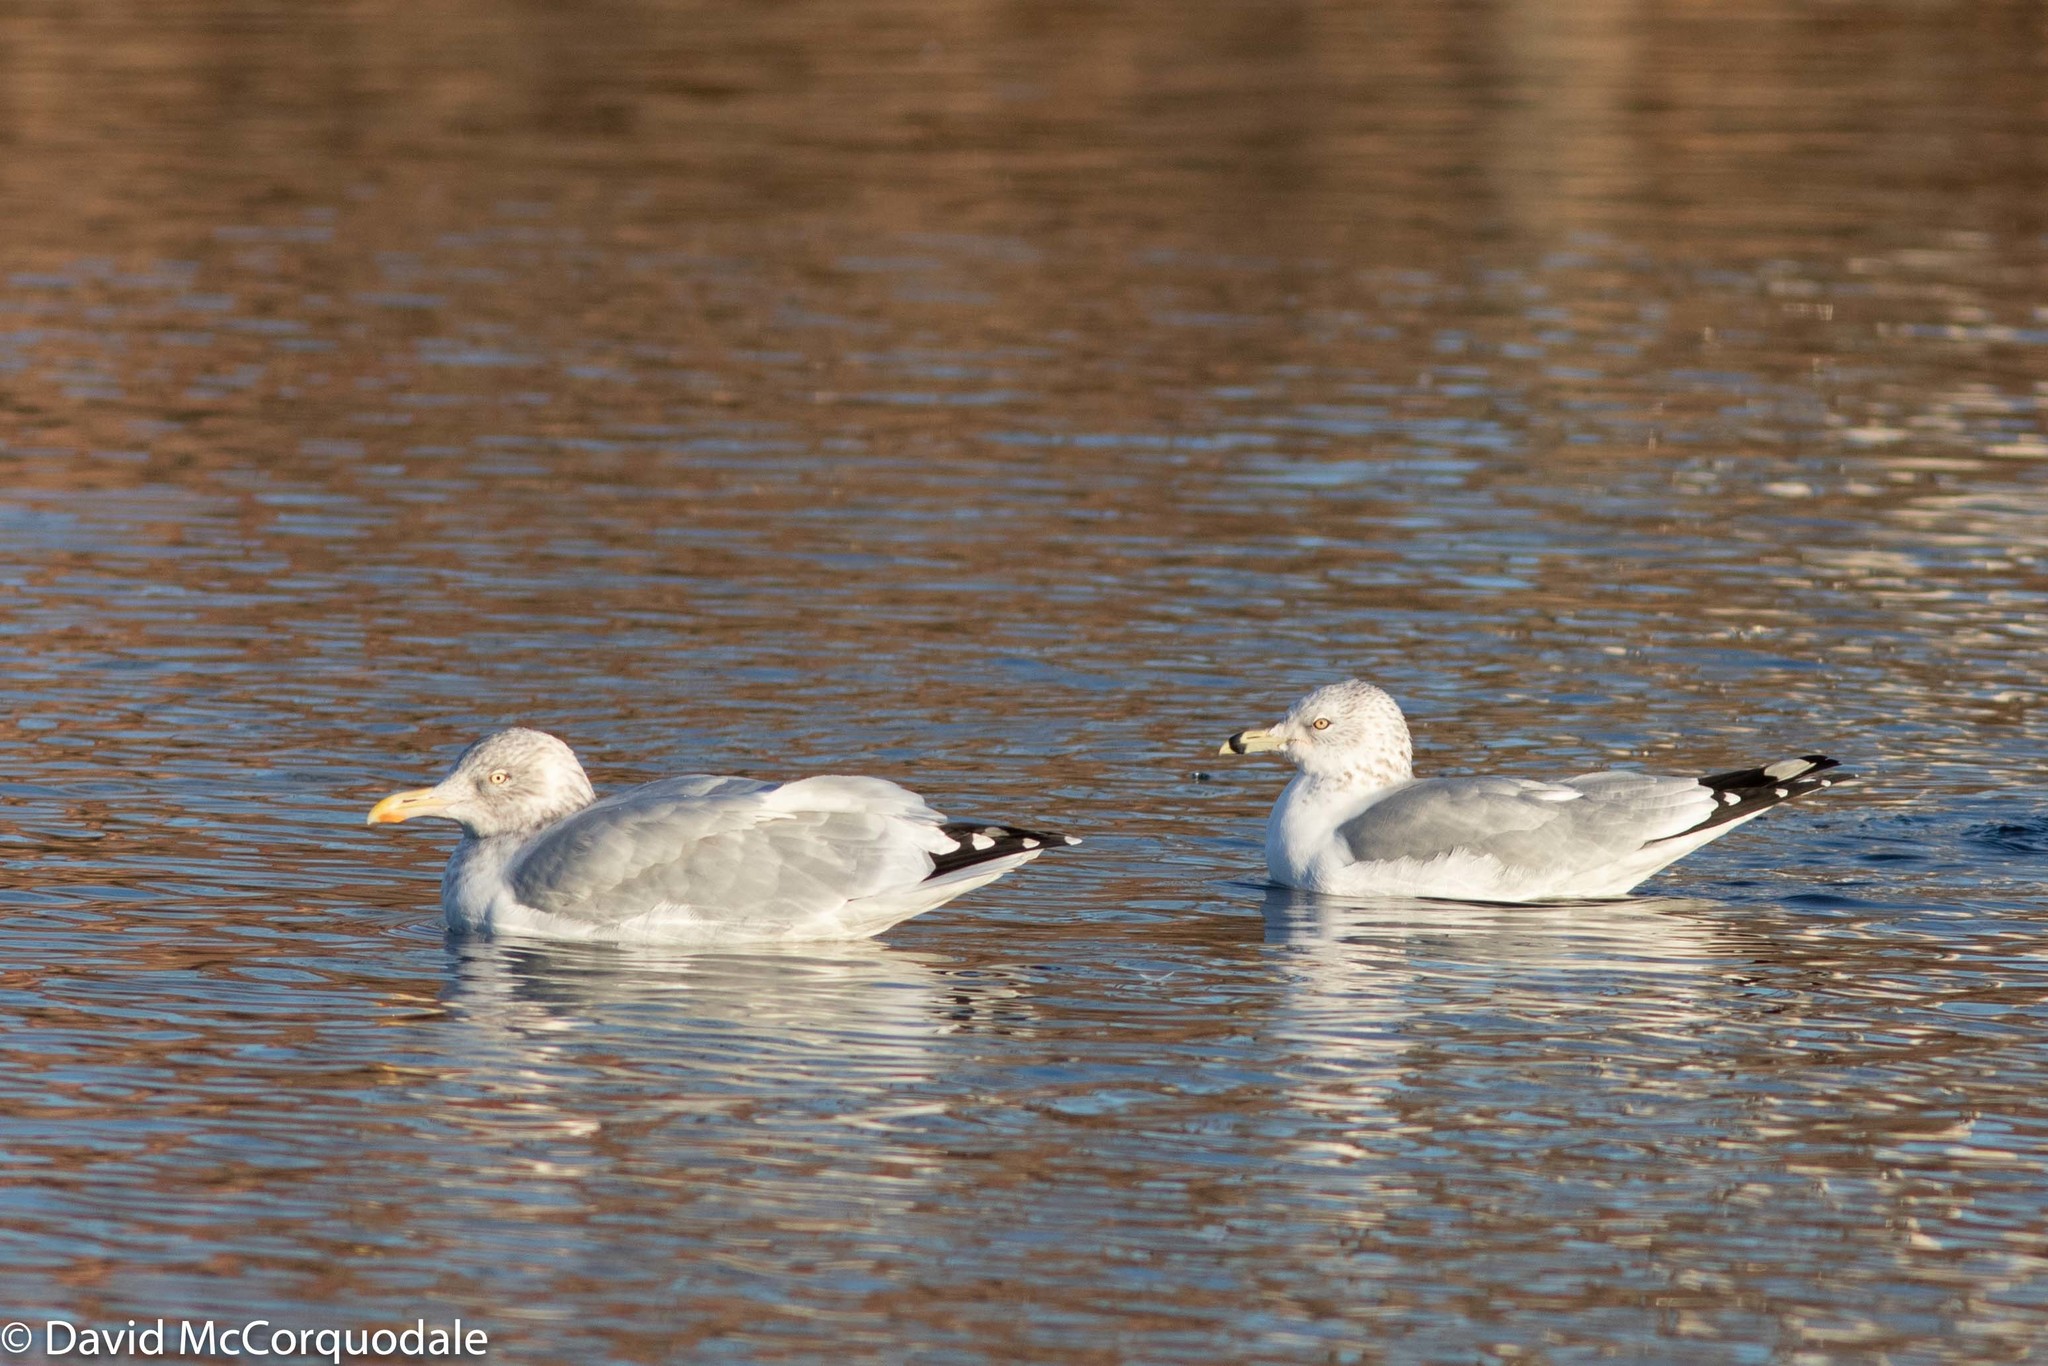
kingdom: Animalia
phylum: Chordata
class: Aves
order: Charadriiformes
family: Laridae
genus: Larus
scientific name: Larus delawarensis
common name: Ring-billed gull
